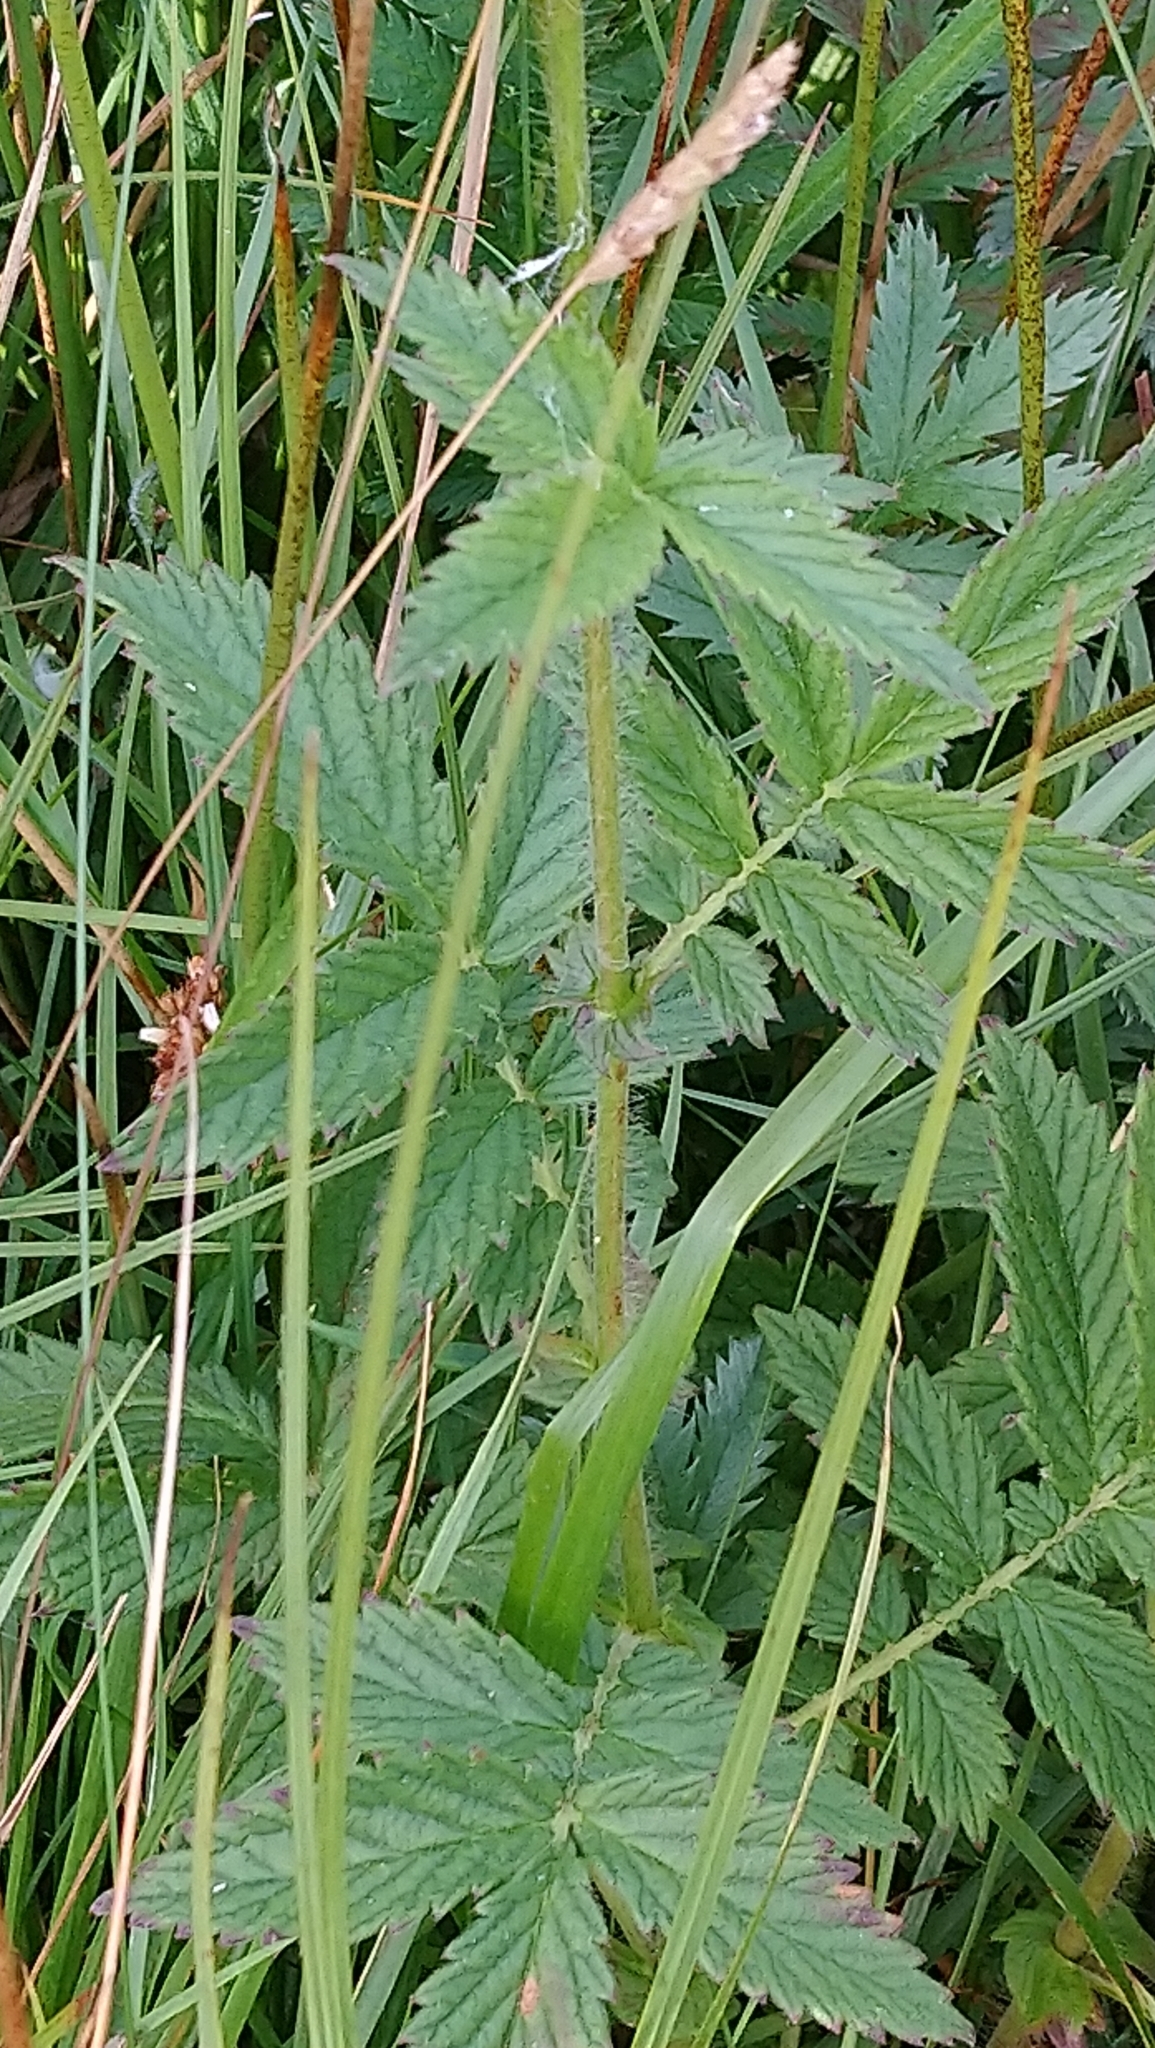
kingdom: Plantae
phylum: Tracheophyta
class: Magnoliopsida
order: Rosales
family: Rosaceae
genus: Agrimonia
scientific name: Agrimonia eupatoria
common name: Agrimony
